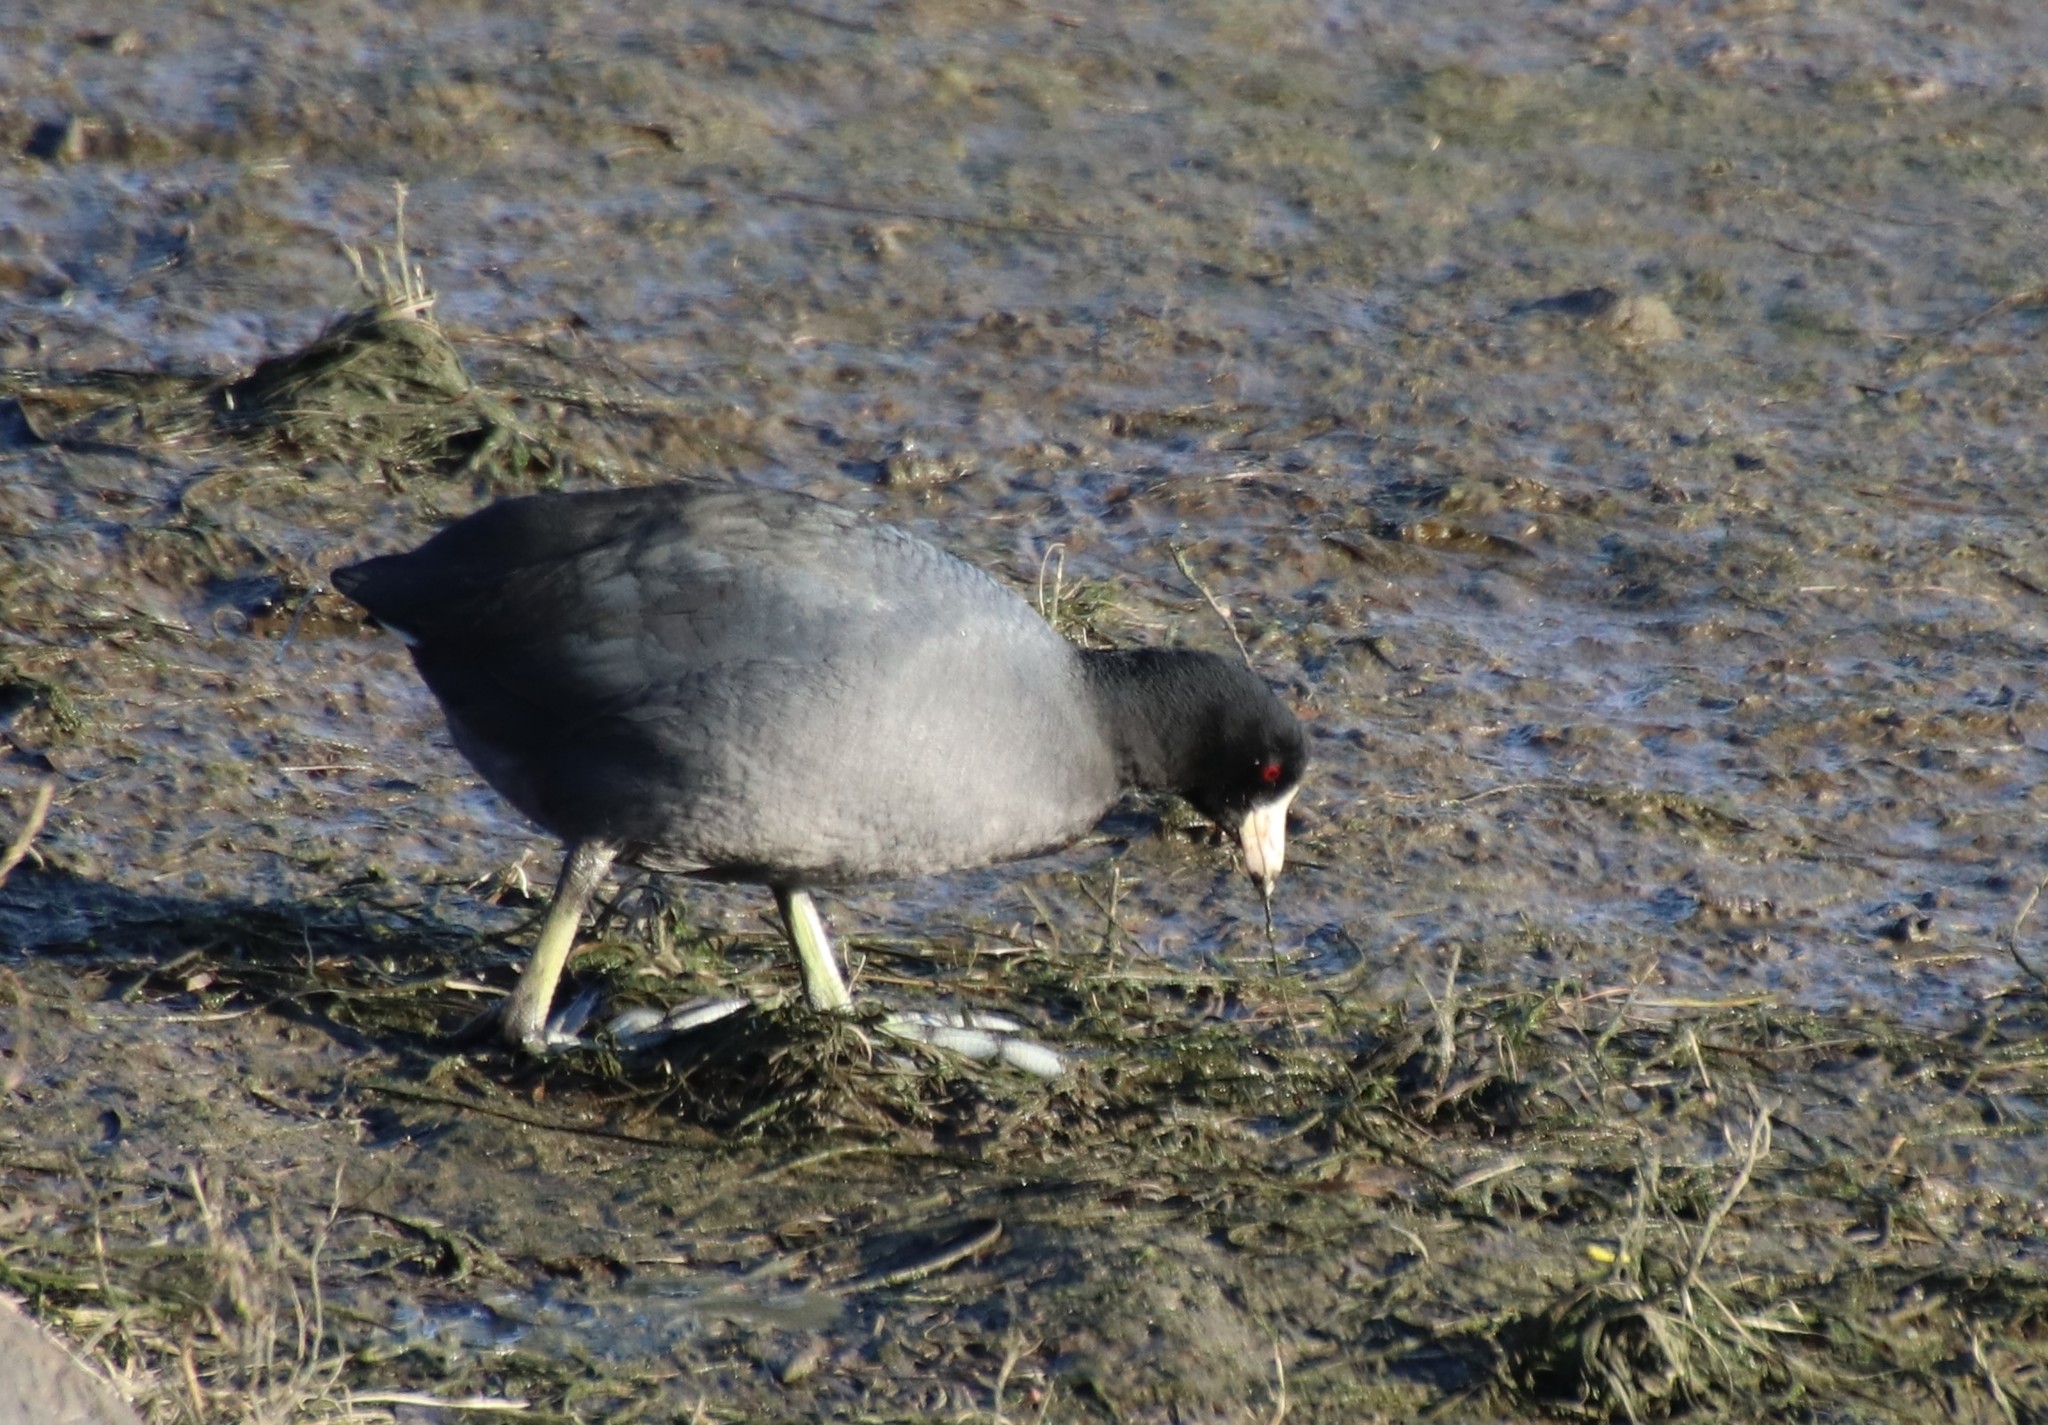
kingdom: Animalia
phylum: Chordata
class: Aves
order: Gruiformes
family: Rallidae
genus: Fulica
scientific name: Fulica americana
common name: American coot
